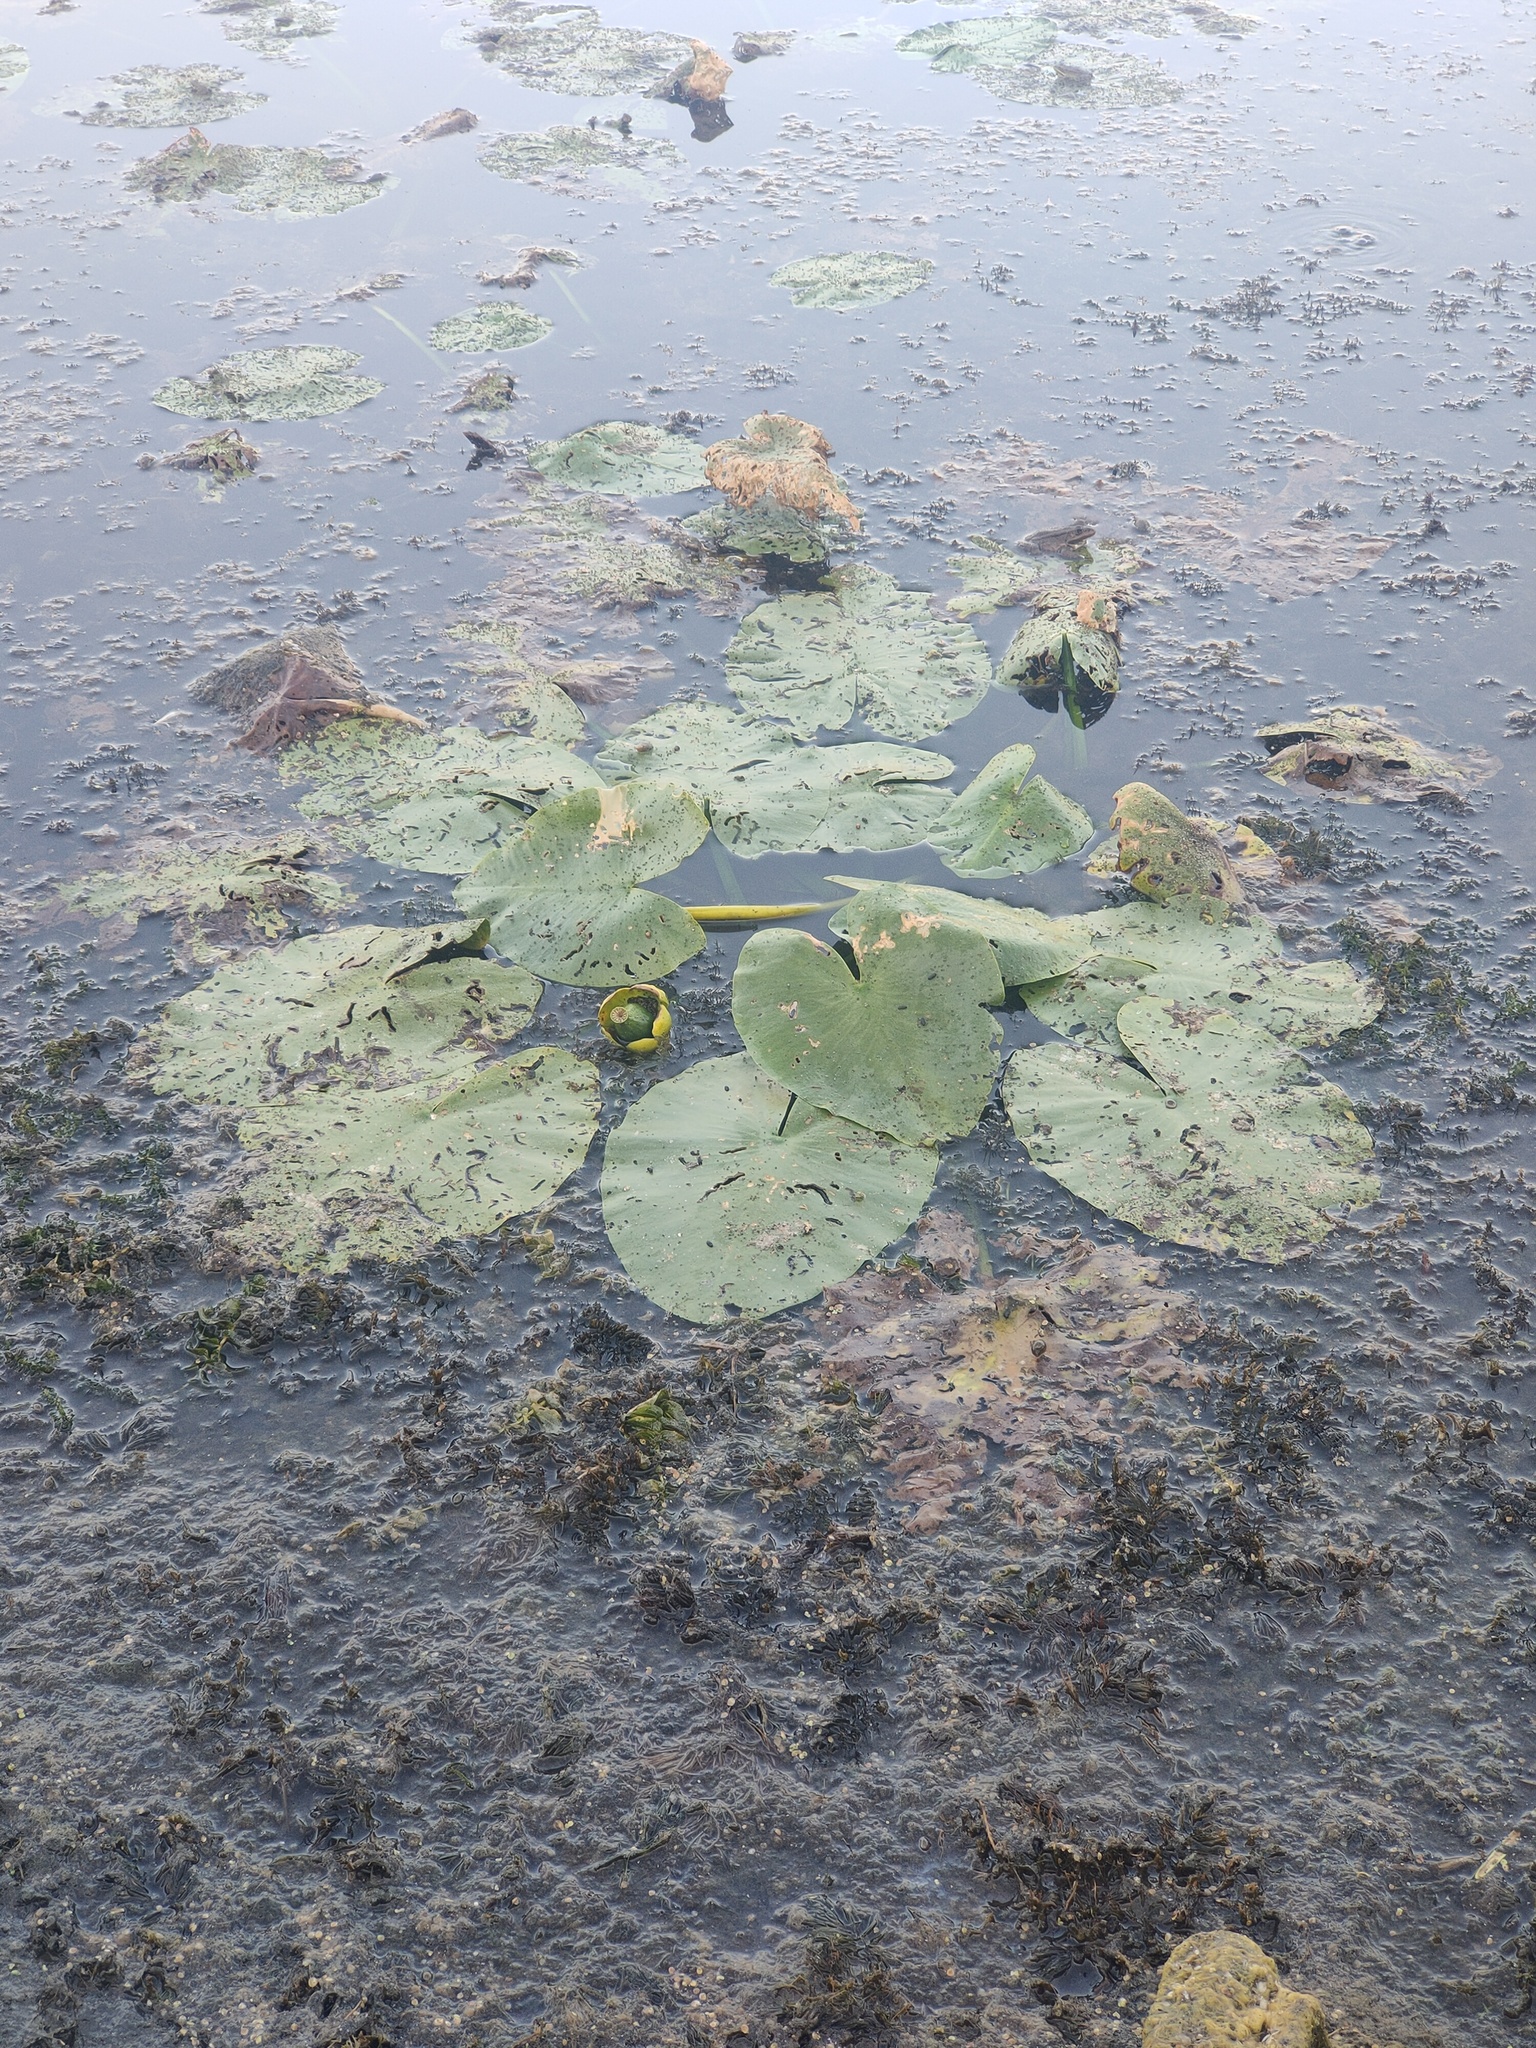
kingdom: Plantae
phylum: Tracheophyta
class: Magnoliopsida
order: Nymphaeales
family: Nymphaeaceae
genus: Nuphar
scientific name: Nuphar lutea
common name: Yellow water-lily
